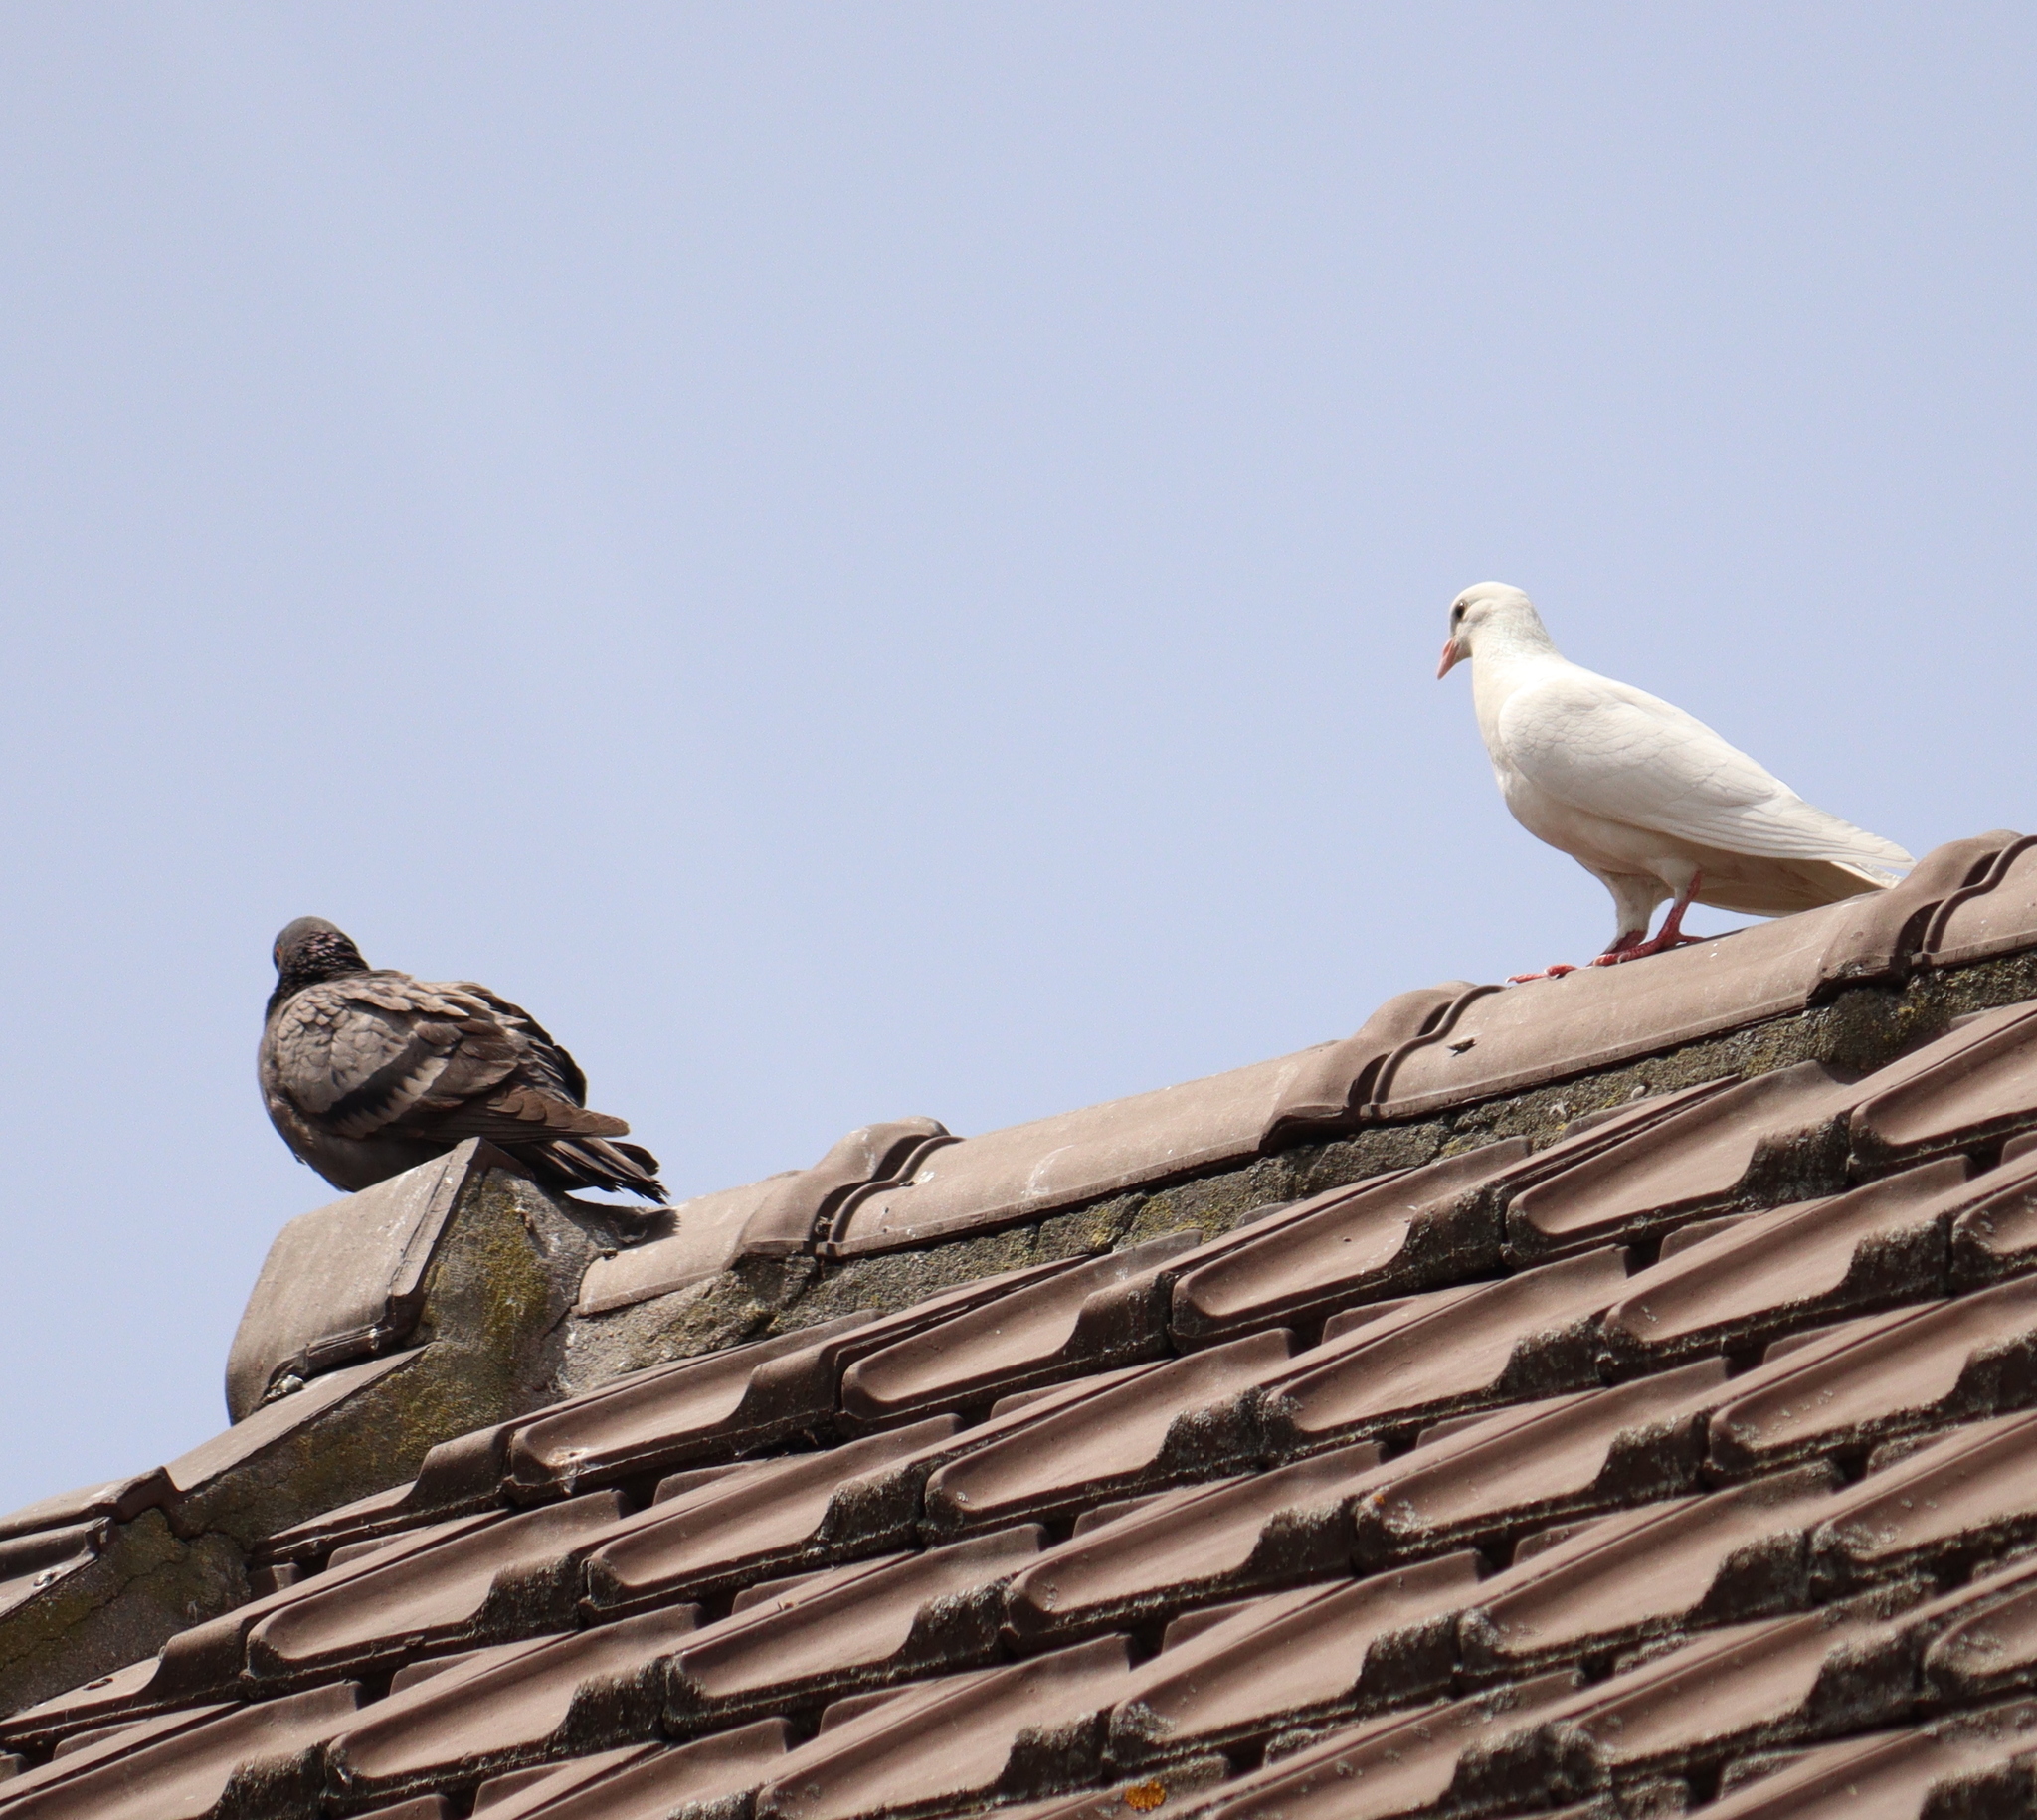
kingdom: Animalia
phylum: Chordata
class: Aves
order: Columbiformes
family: Columbidae
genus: Columba
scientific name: Columba livia
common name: Rock pigeon
